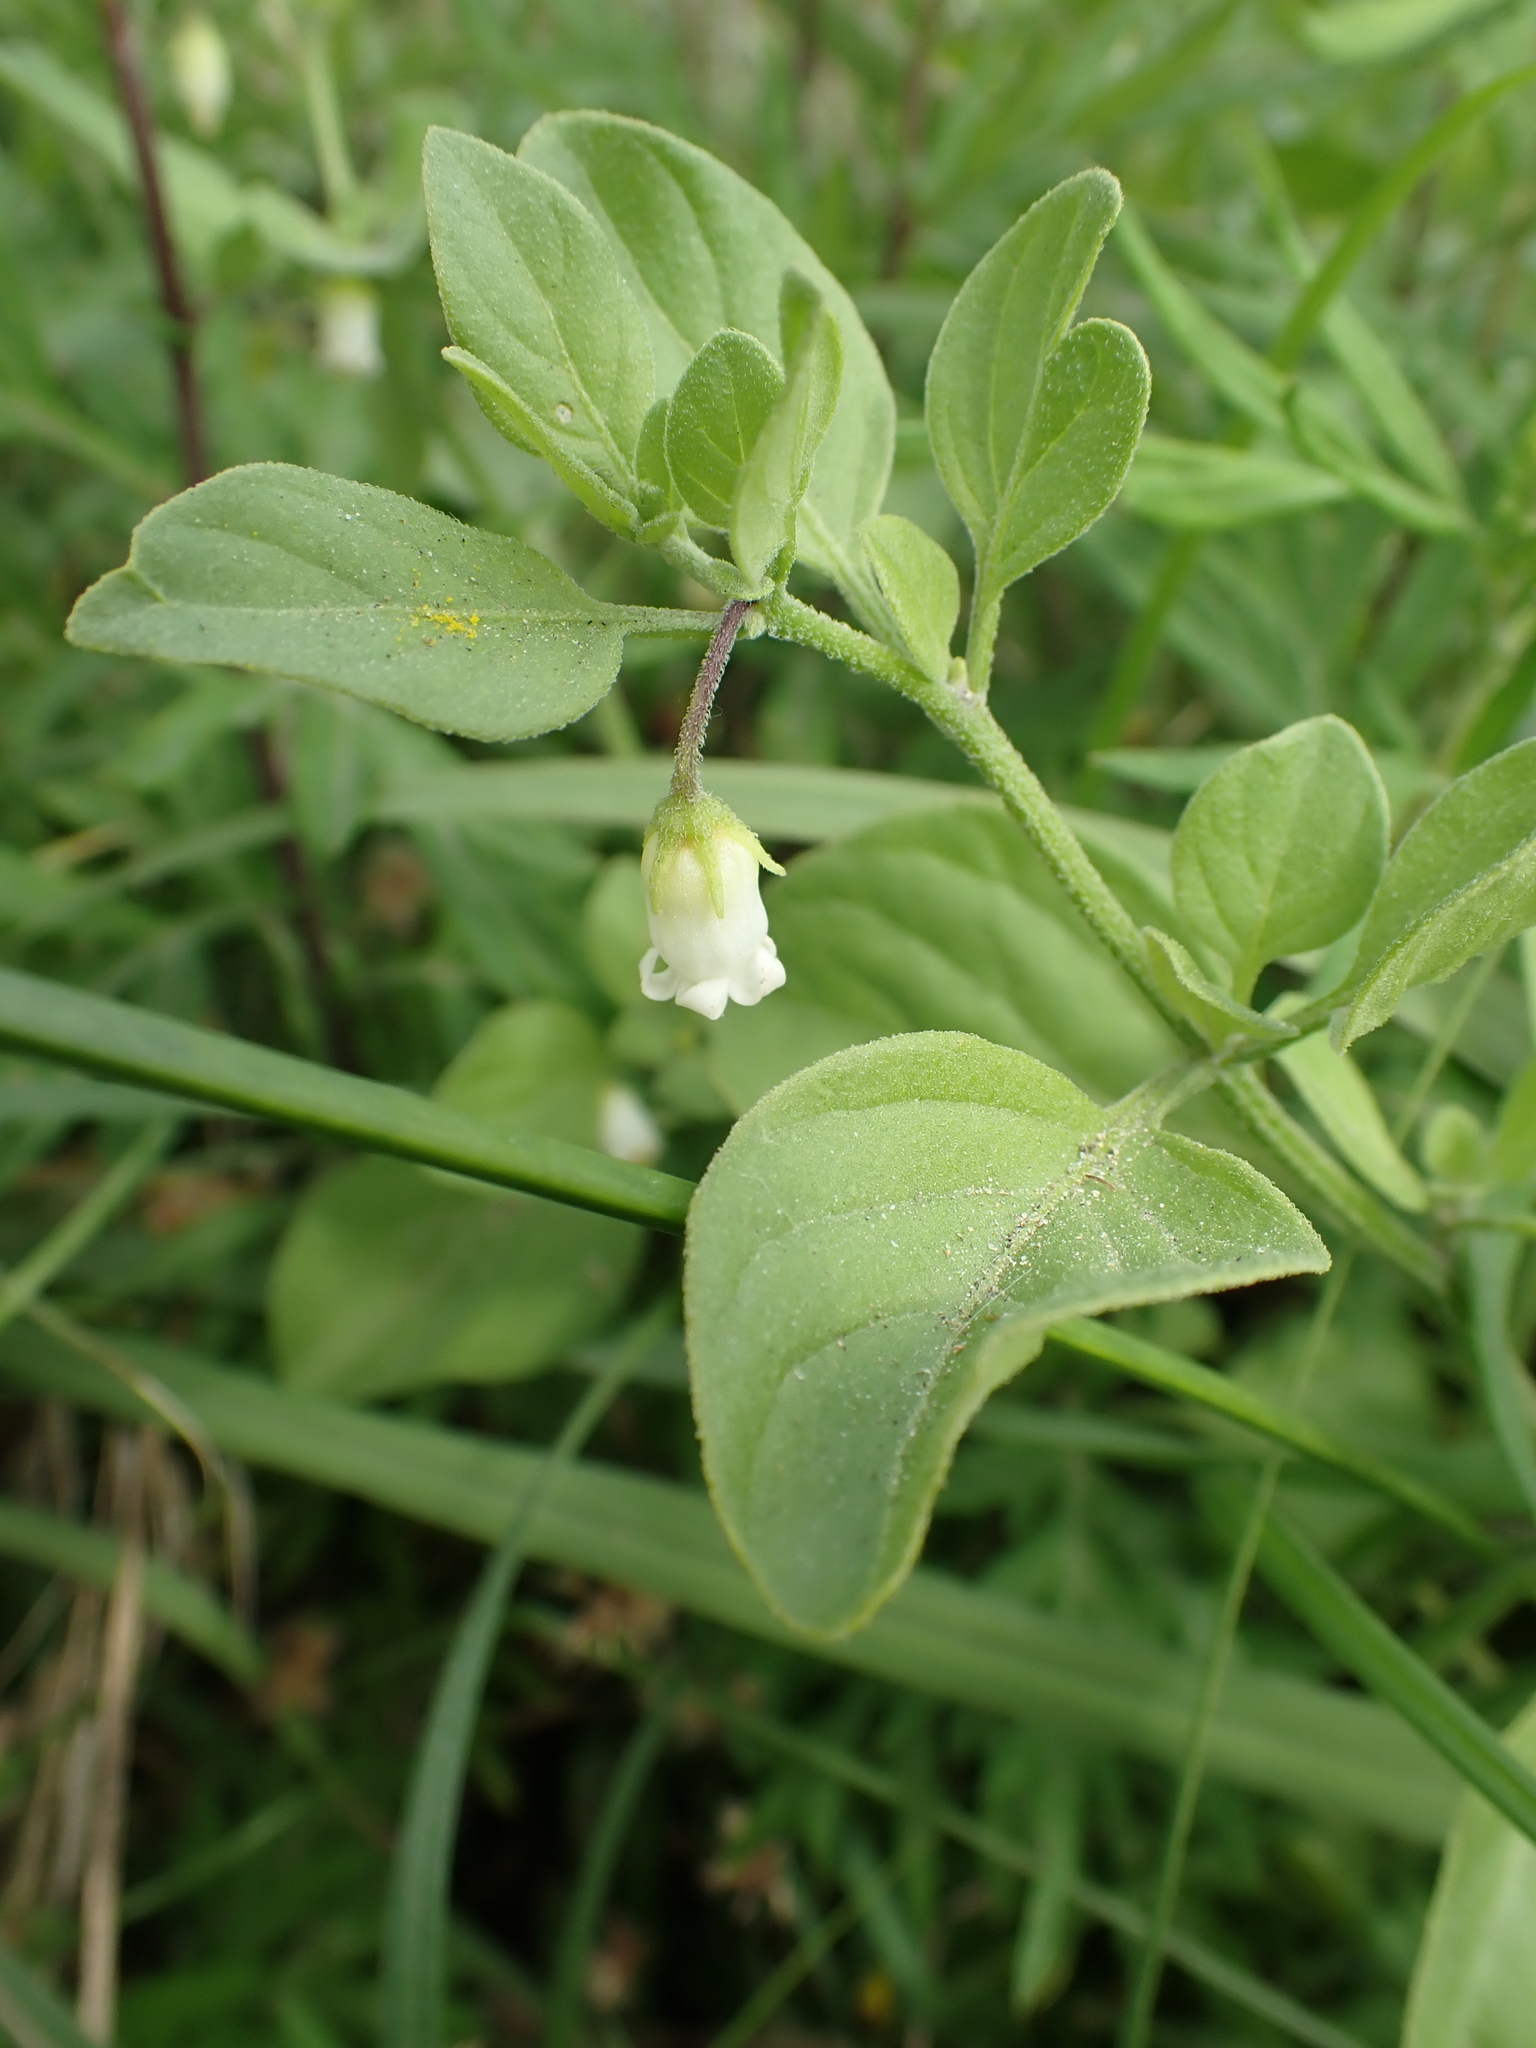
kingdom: Plantae
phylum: Tracheophyta
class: Magnoliopsida
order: Solanales
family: Solanaceae
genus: Salpichroa
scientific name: Salpichroa origanifolia
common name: Lily-of-the-valley-vine
